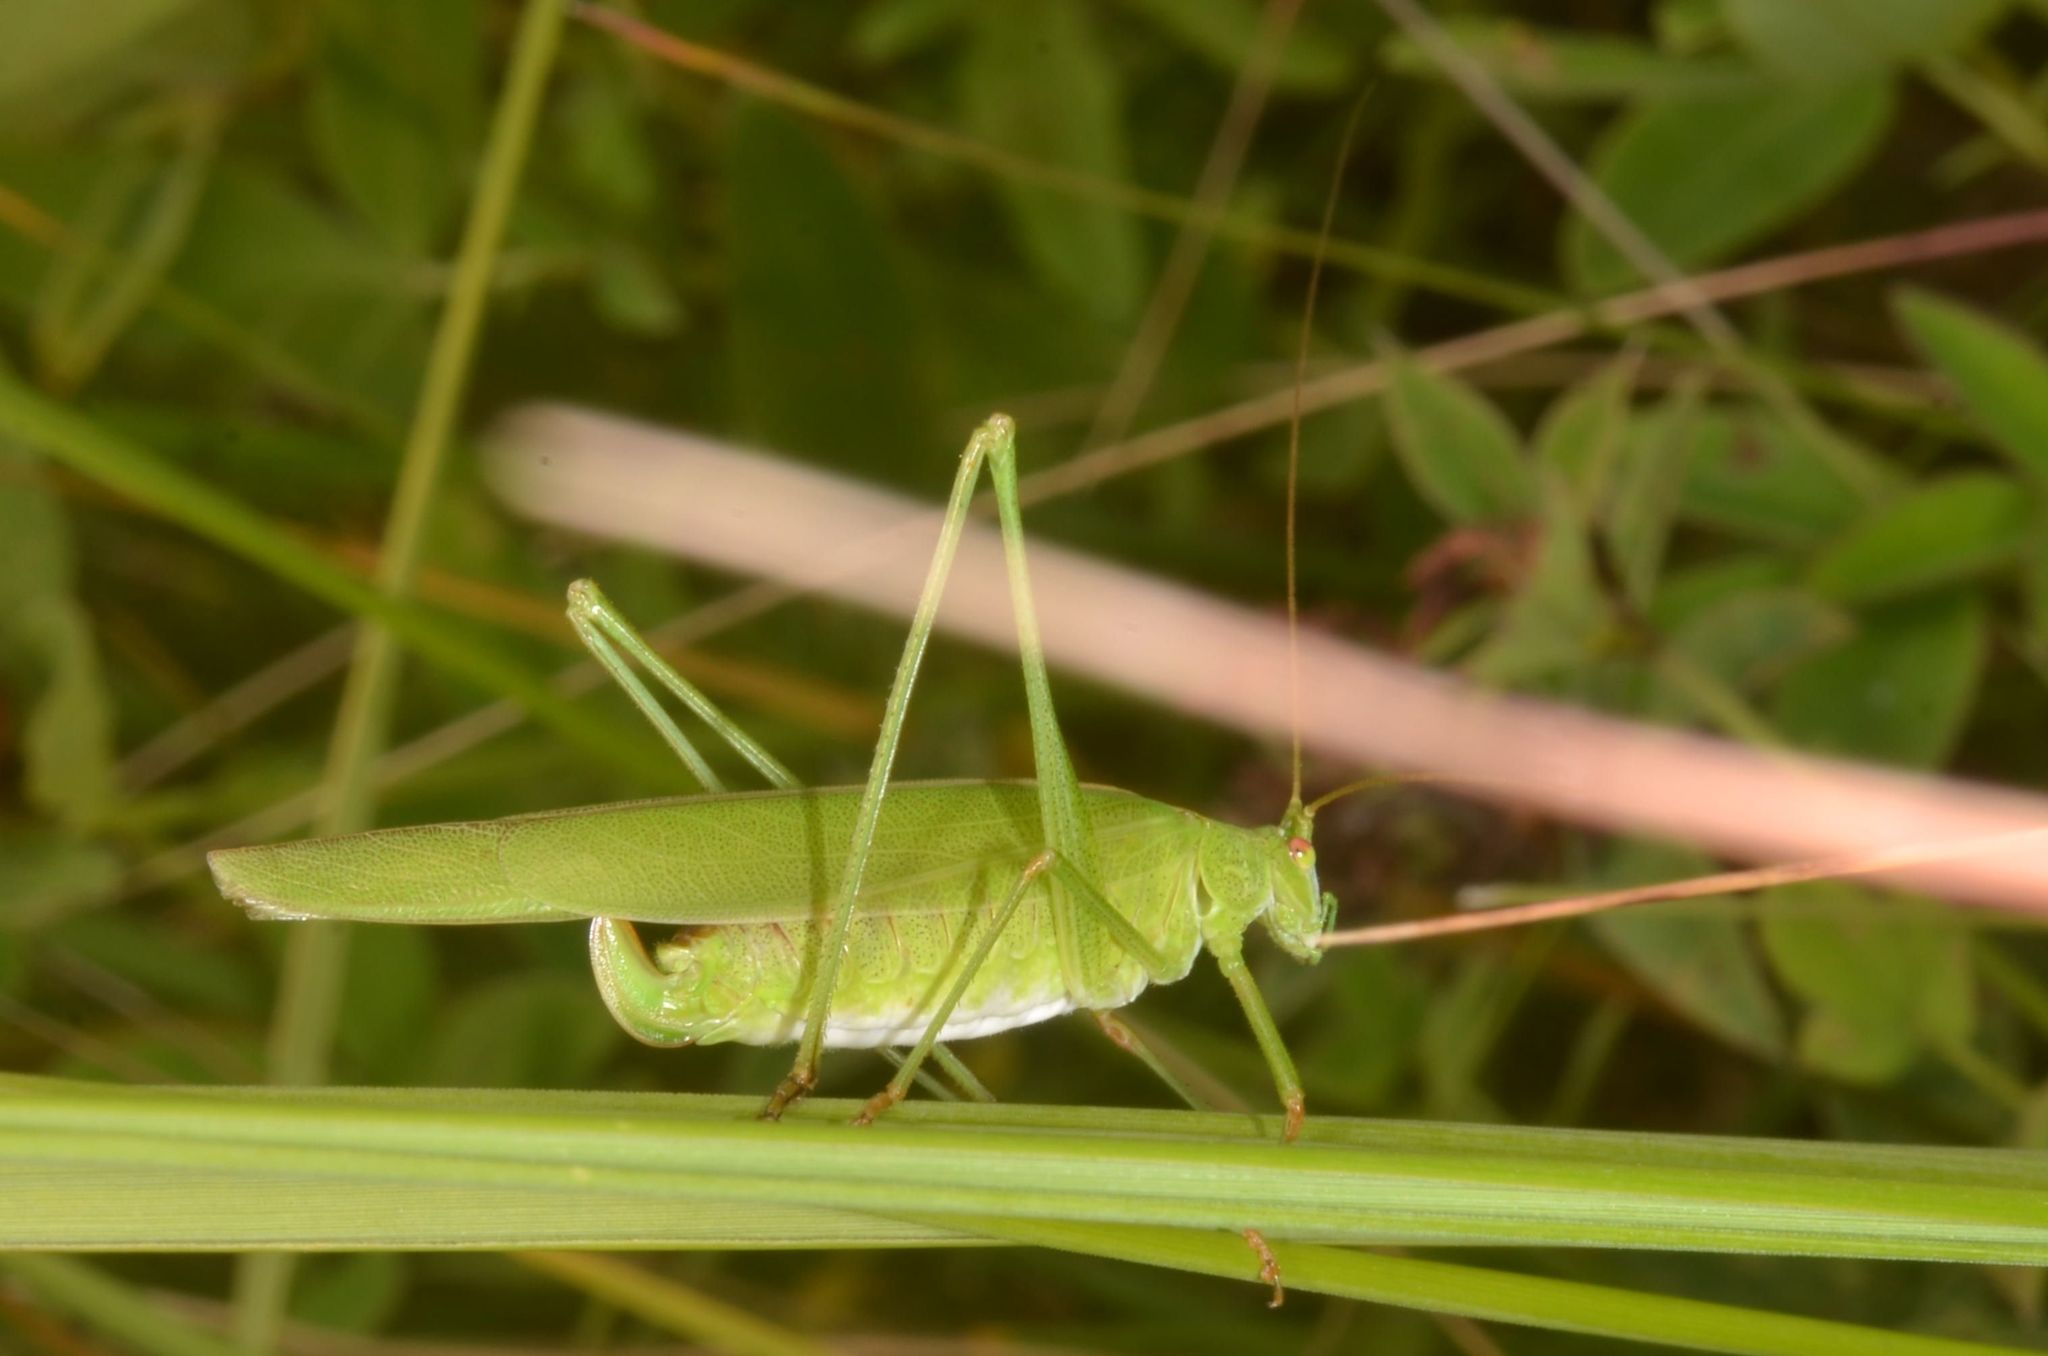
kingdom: Animalia
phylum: Arthropoda
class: Insecta
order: Orthoptera
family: Tettigoniidae
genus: Phaneroptera
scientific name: Phaneroptera falcata
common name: Sickle-bearing bush-cricket
